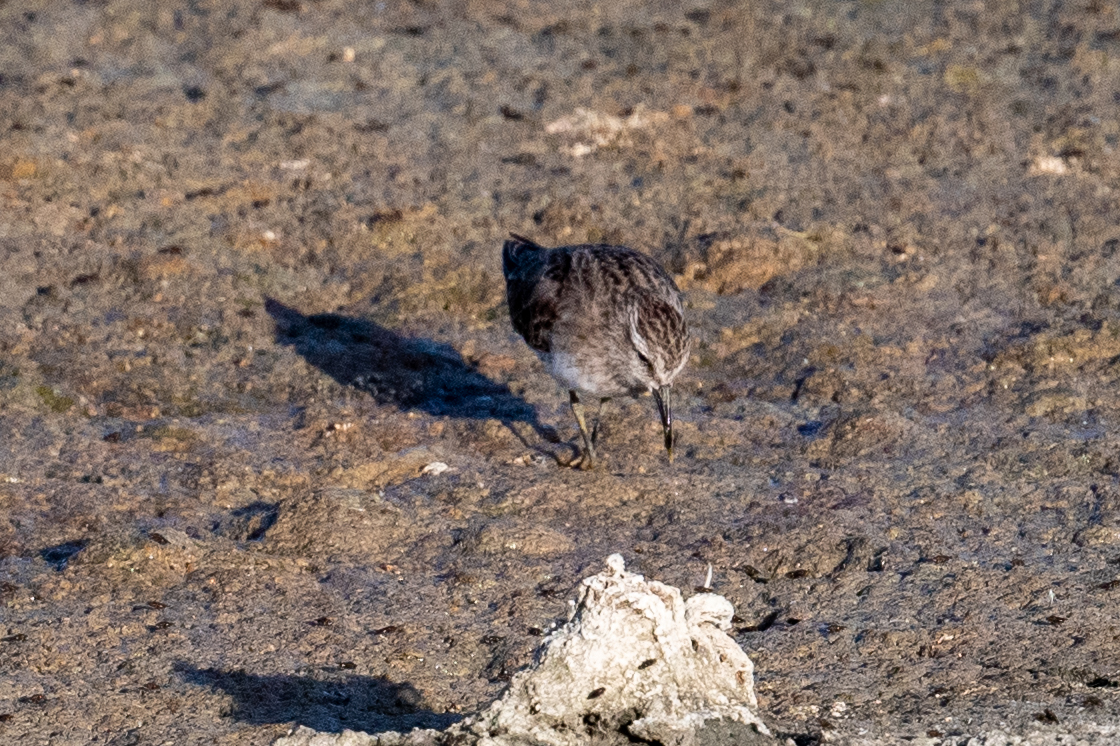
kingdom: Animalia
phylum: Chordata
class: Aves
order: Charadriiformes
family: Scolopacidae
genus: Calidris
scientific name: Calidris minutilla
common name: Least sandpiper
